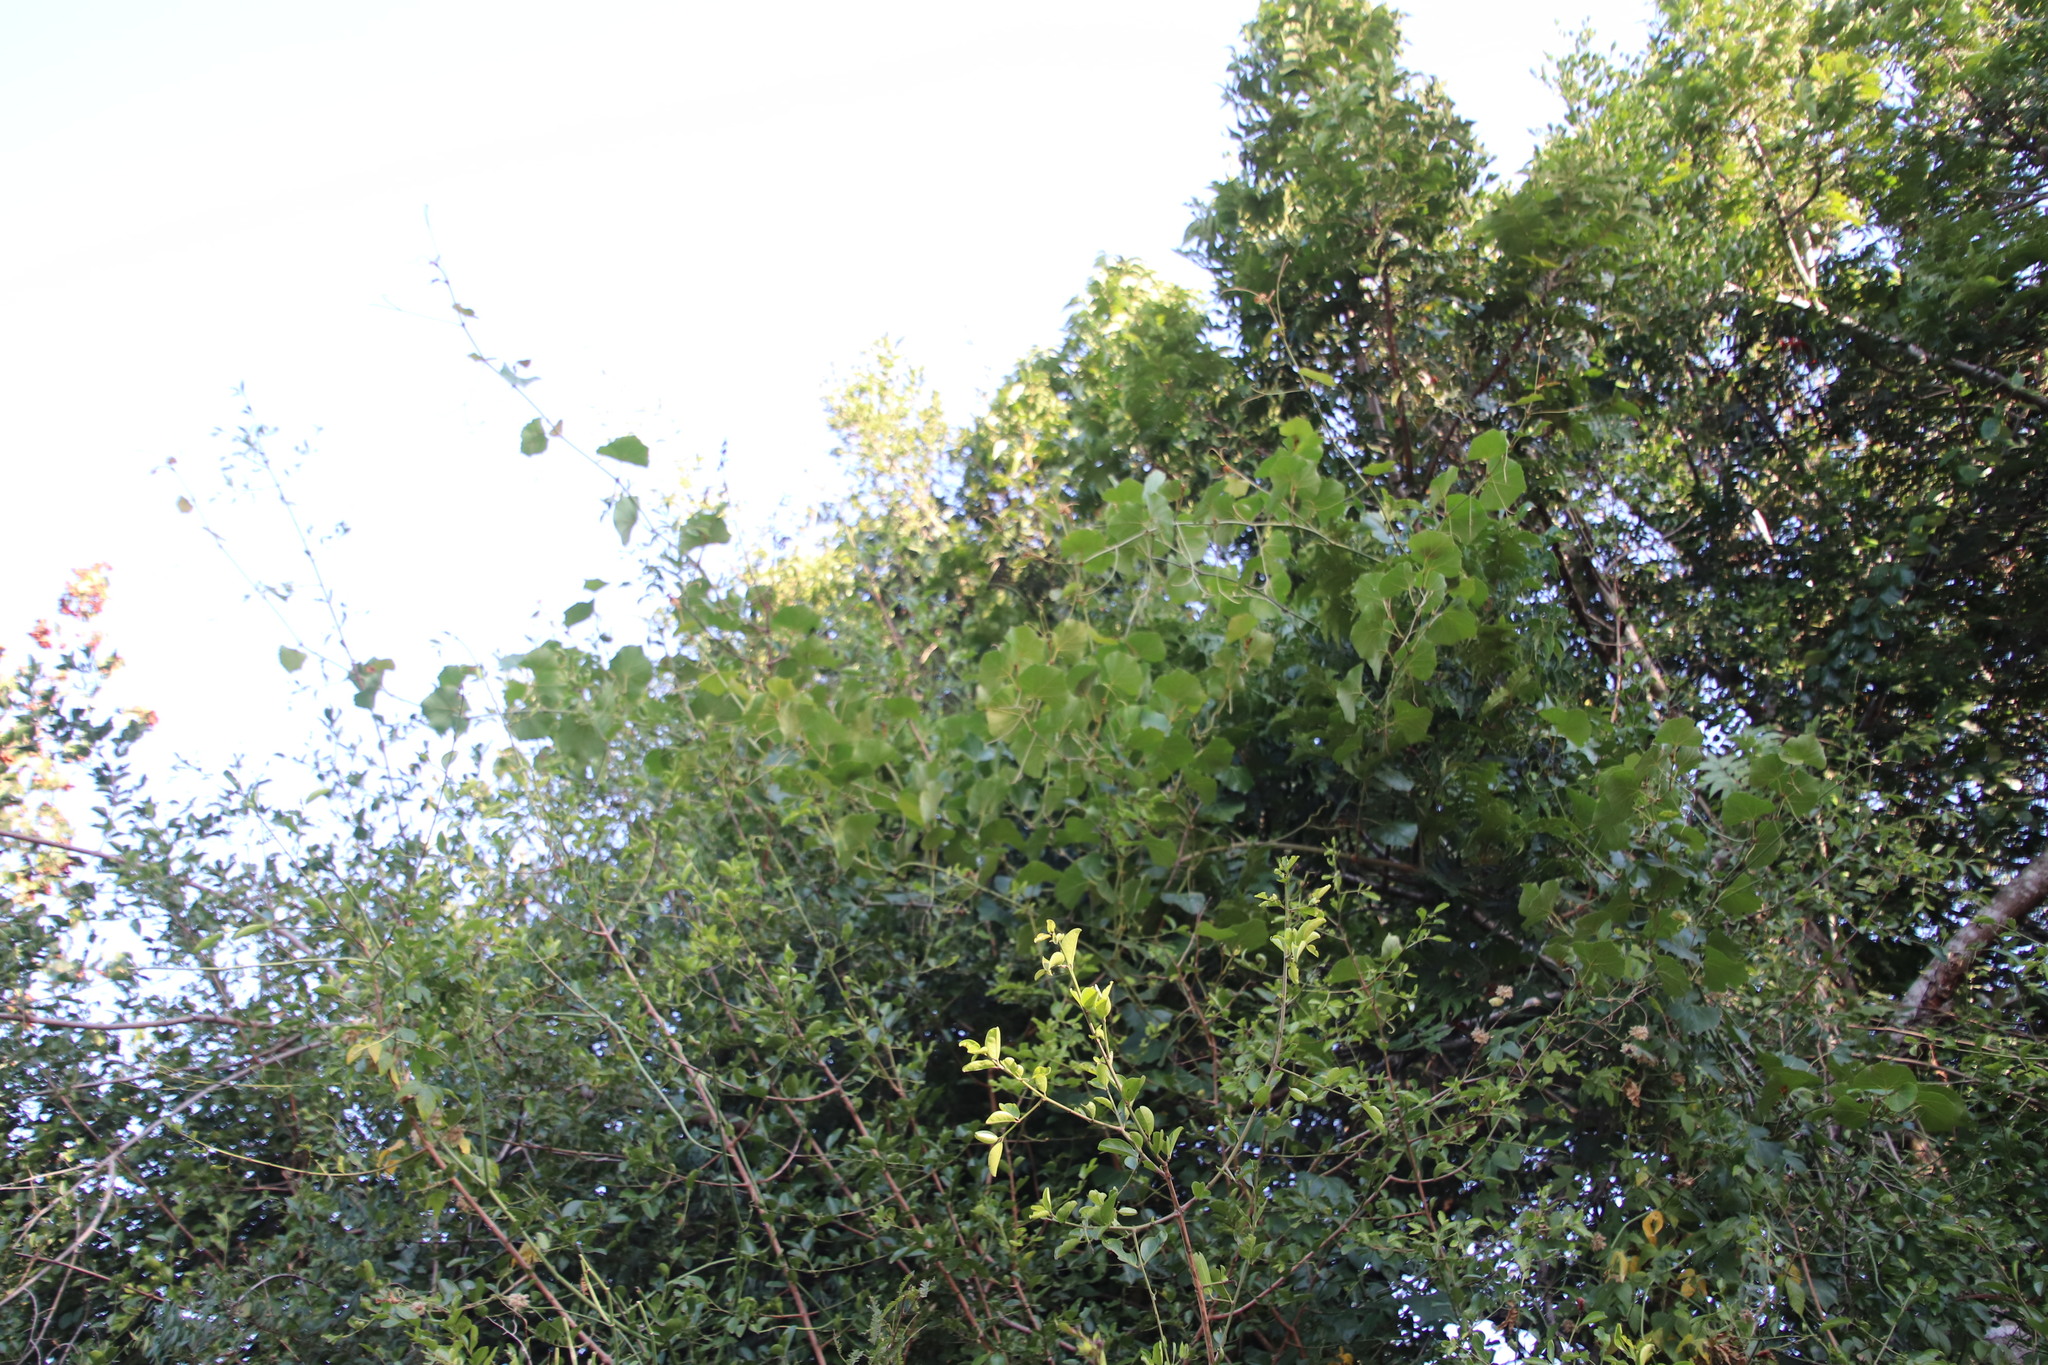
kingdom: Plantae
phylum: Tracheophyta
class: Magnoliopsida
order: Vitales
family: Vitaceae
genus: Rhoicissus
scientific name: Rhoicissus tomentosa
